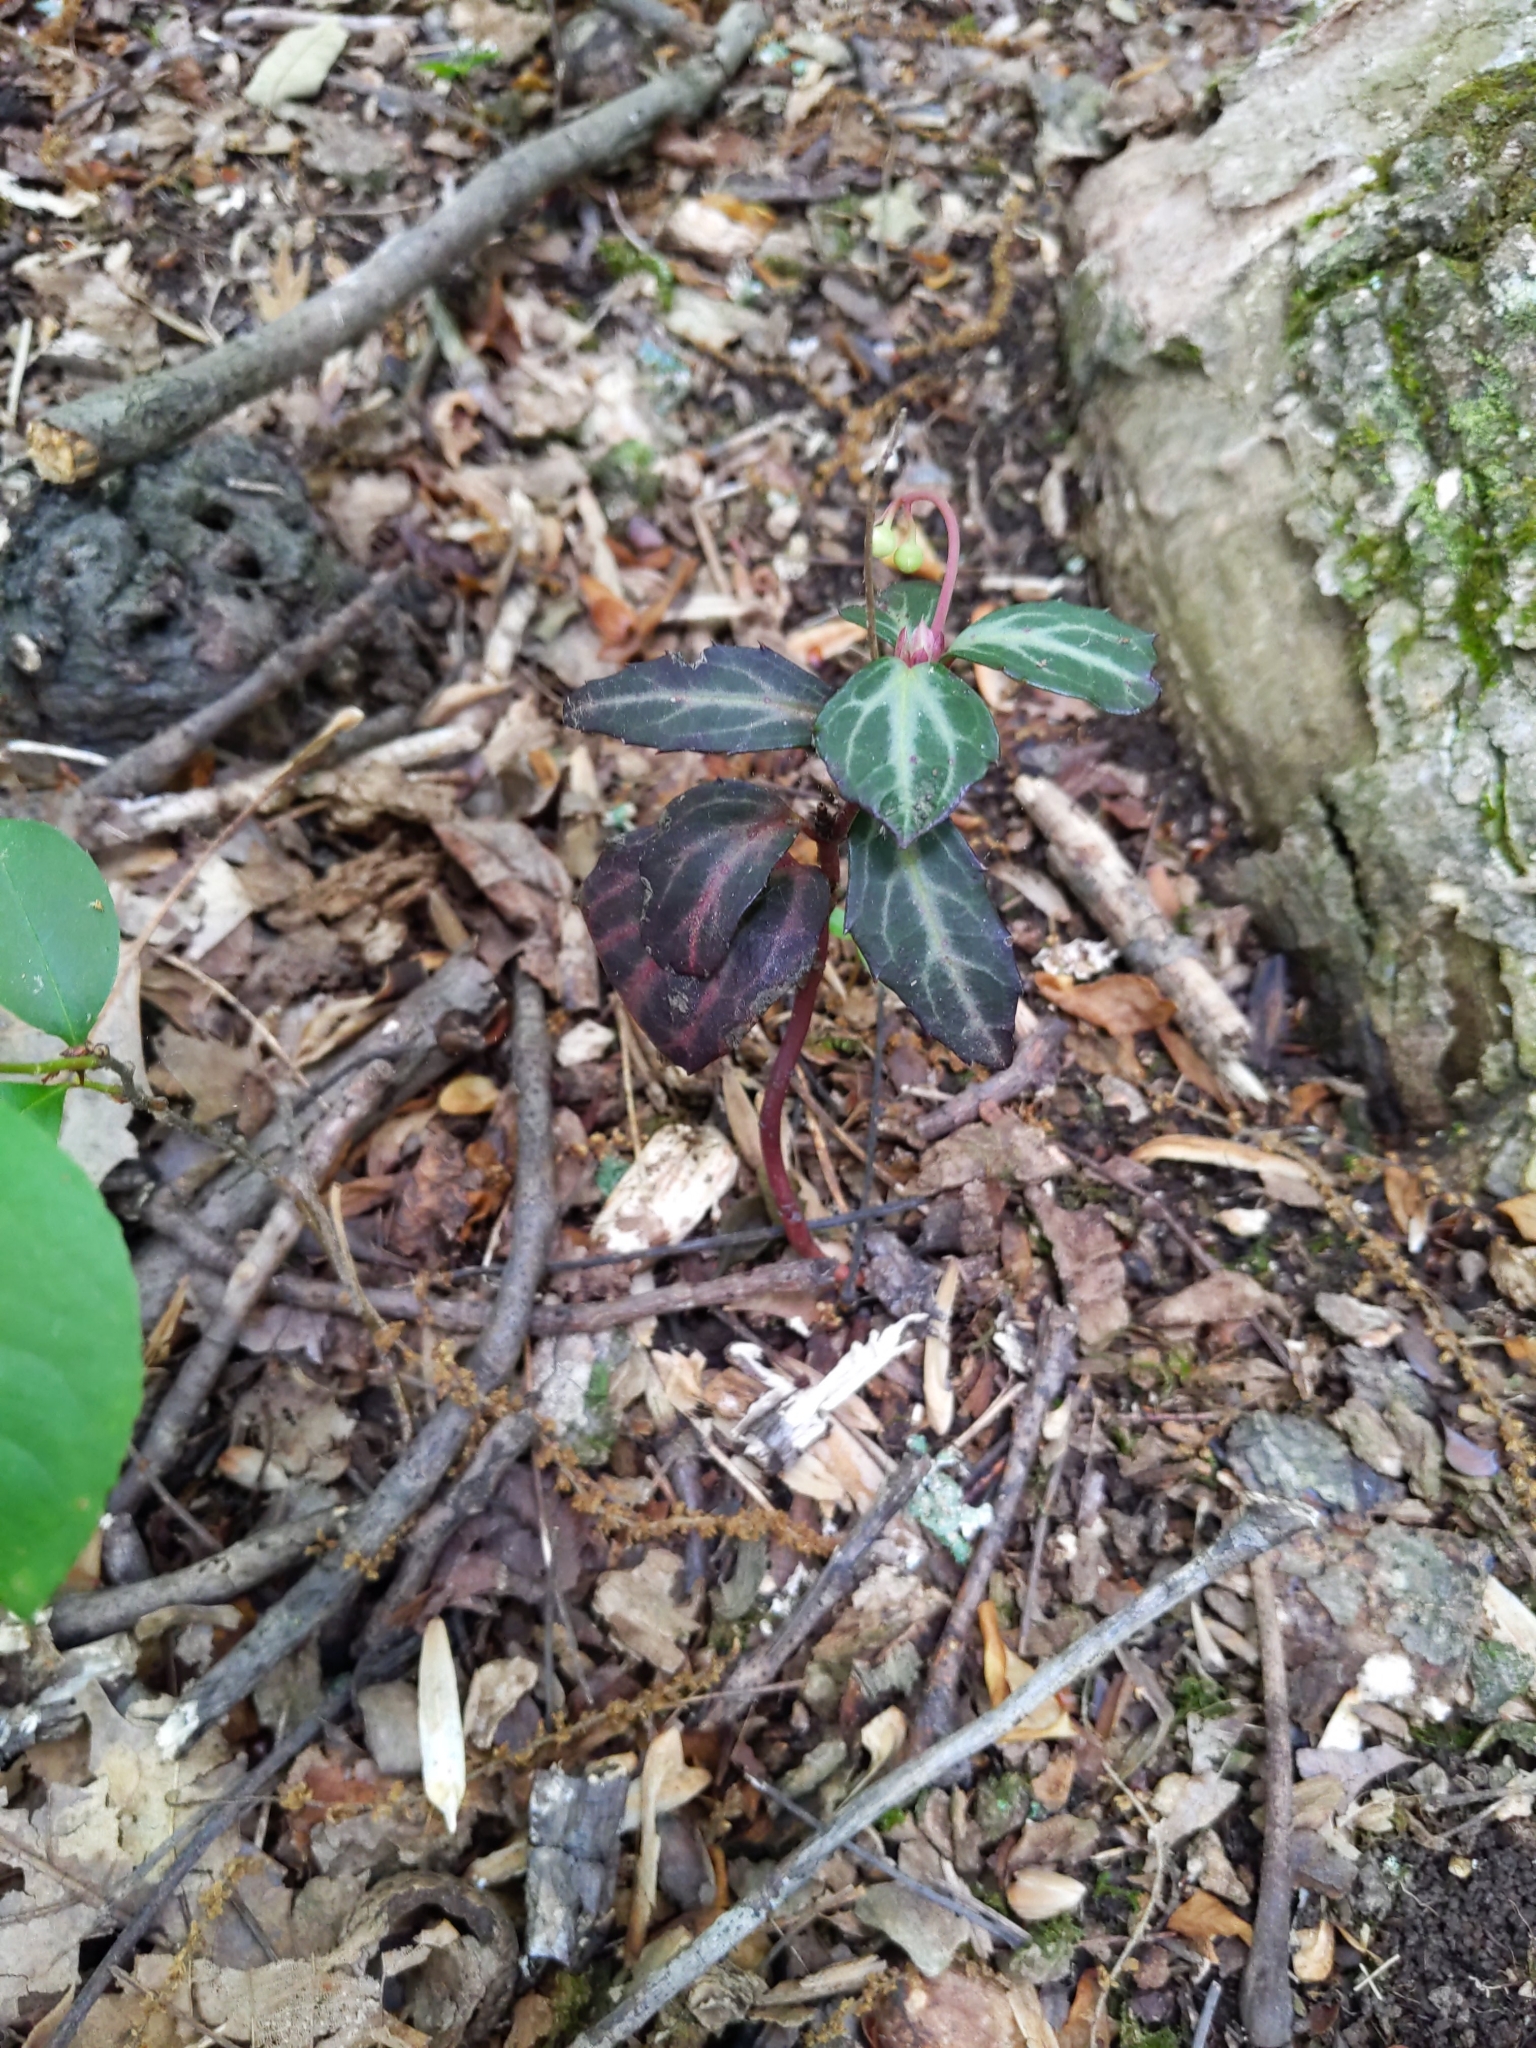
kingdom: Plantae
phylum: Tracheophyta
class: Magnoliopsida
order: Ericales
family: Ericaceae
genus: Chimaphila
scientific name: Chimaphila maculata
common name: Spotted pipsissewa
